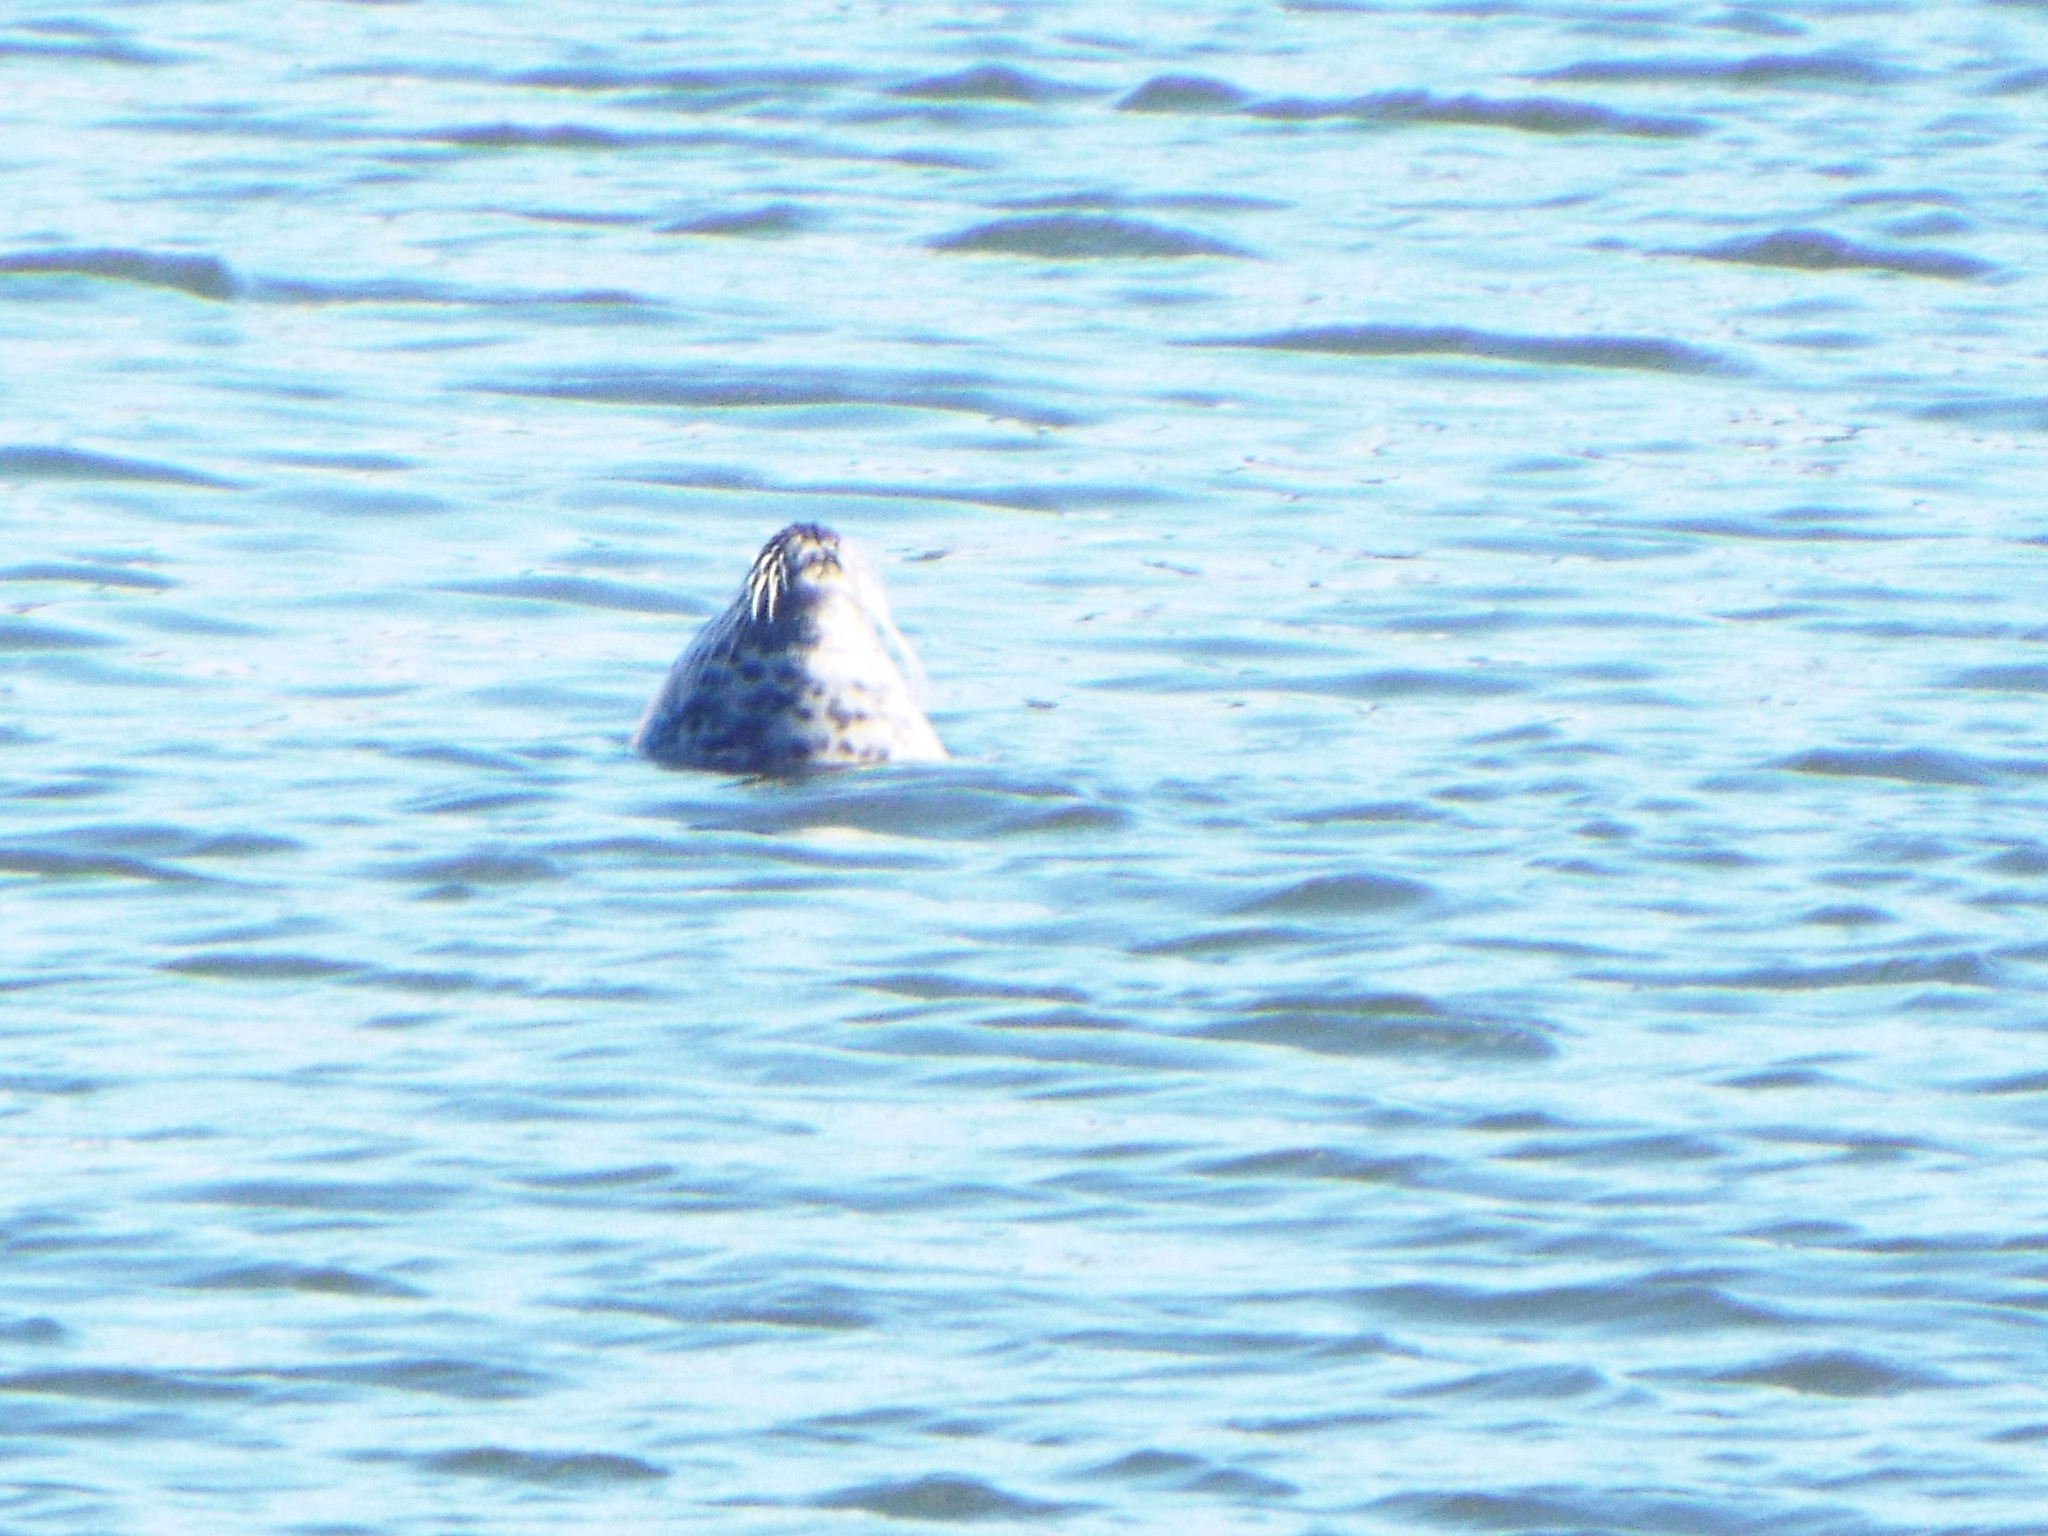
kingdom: Animalia
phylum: Chordata
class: Mammalia
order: Carnivora
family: Phocidae
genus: Phoca
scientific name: Phoca vitulina
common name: Harbor seal
